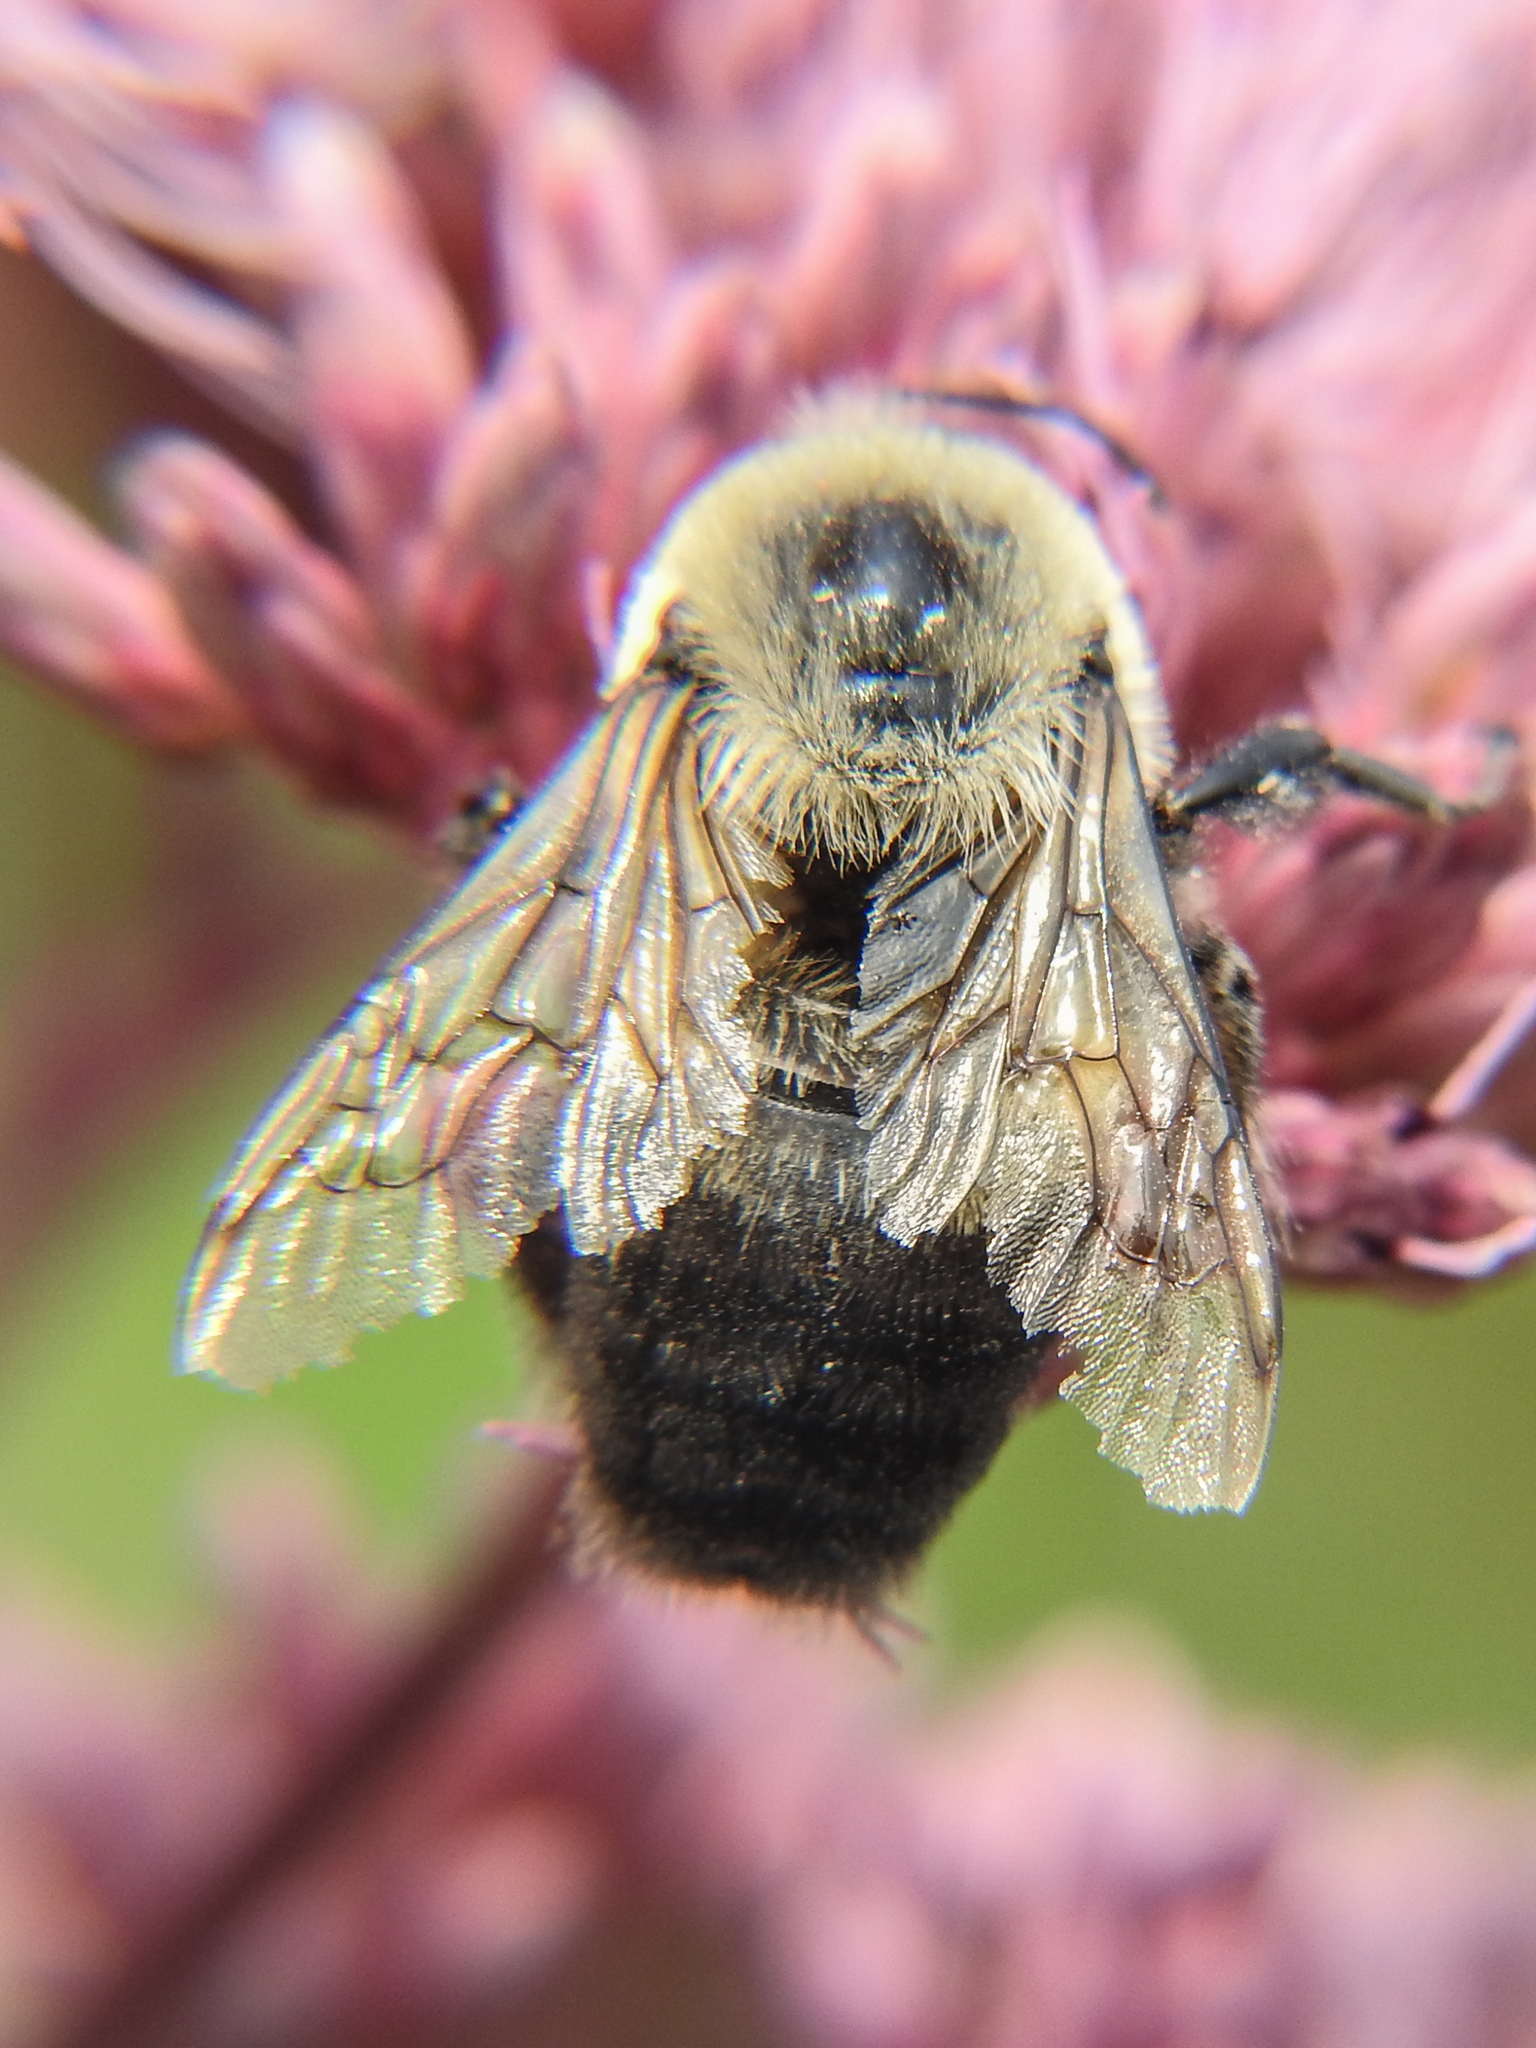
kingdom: Animalia
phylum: Arthropoda
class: Insecta
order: Hymenoptera
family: Apidae
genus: Bombus
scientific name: Bombus griseocollis
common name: Brown-belted bumble bee
